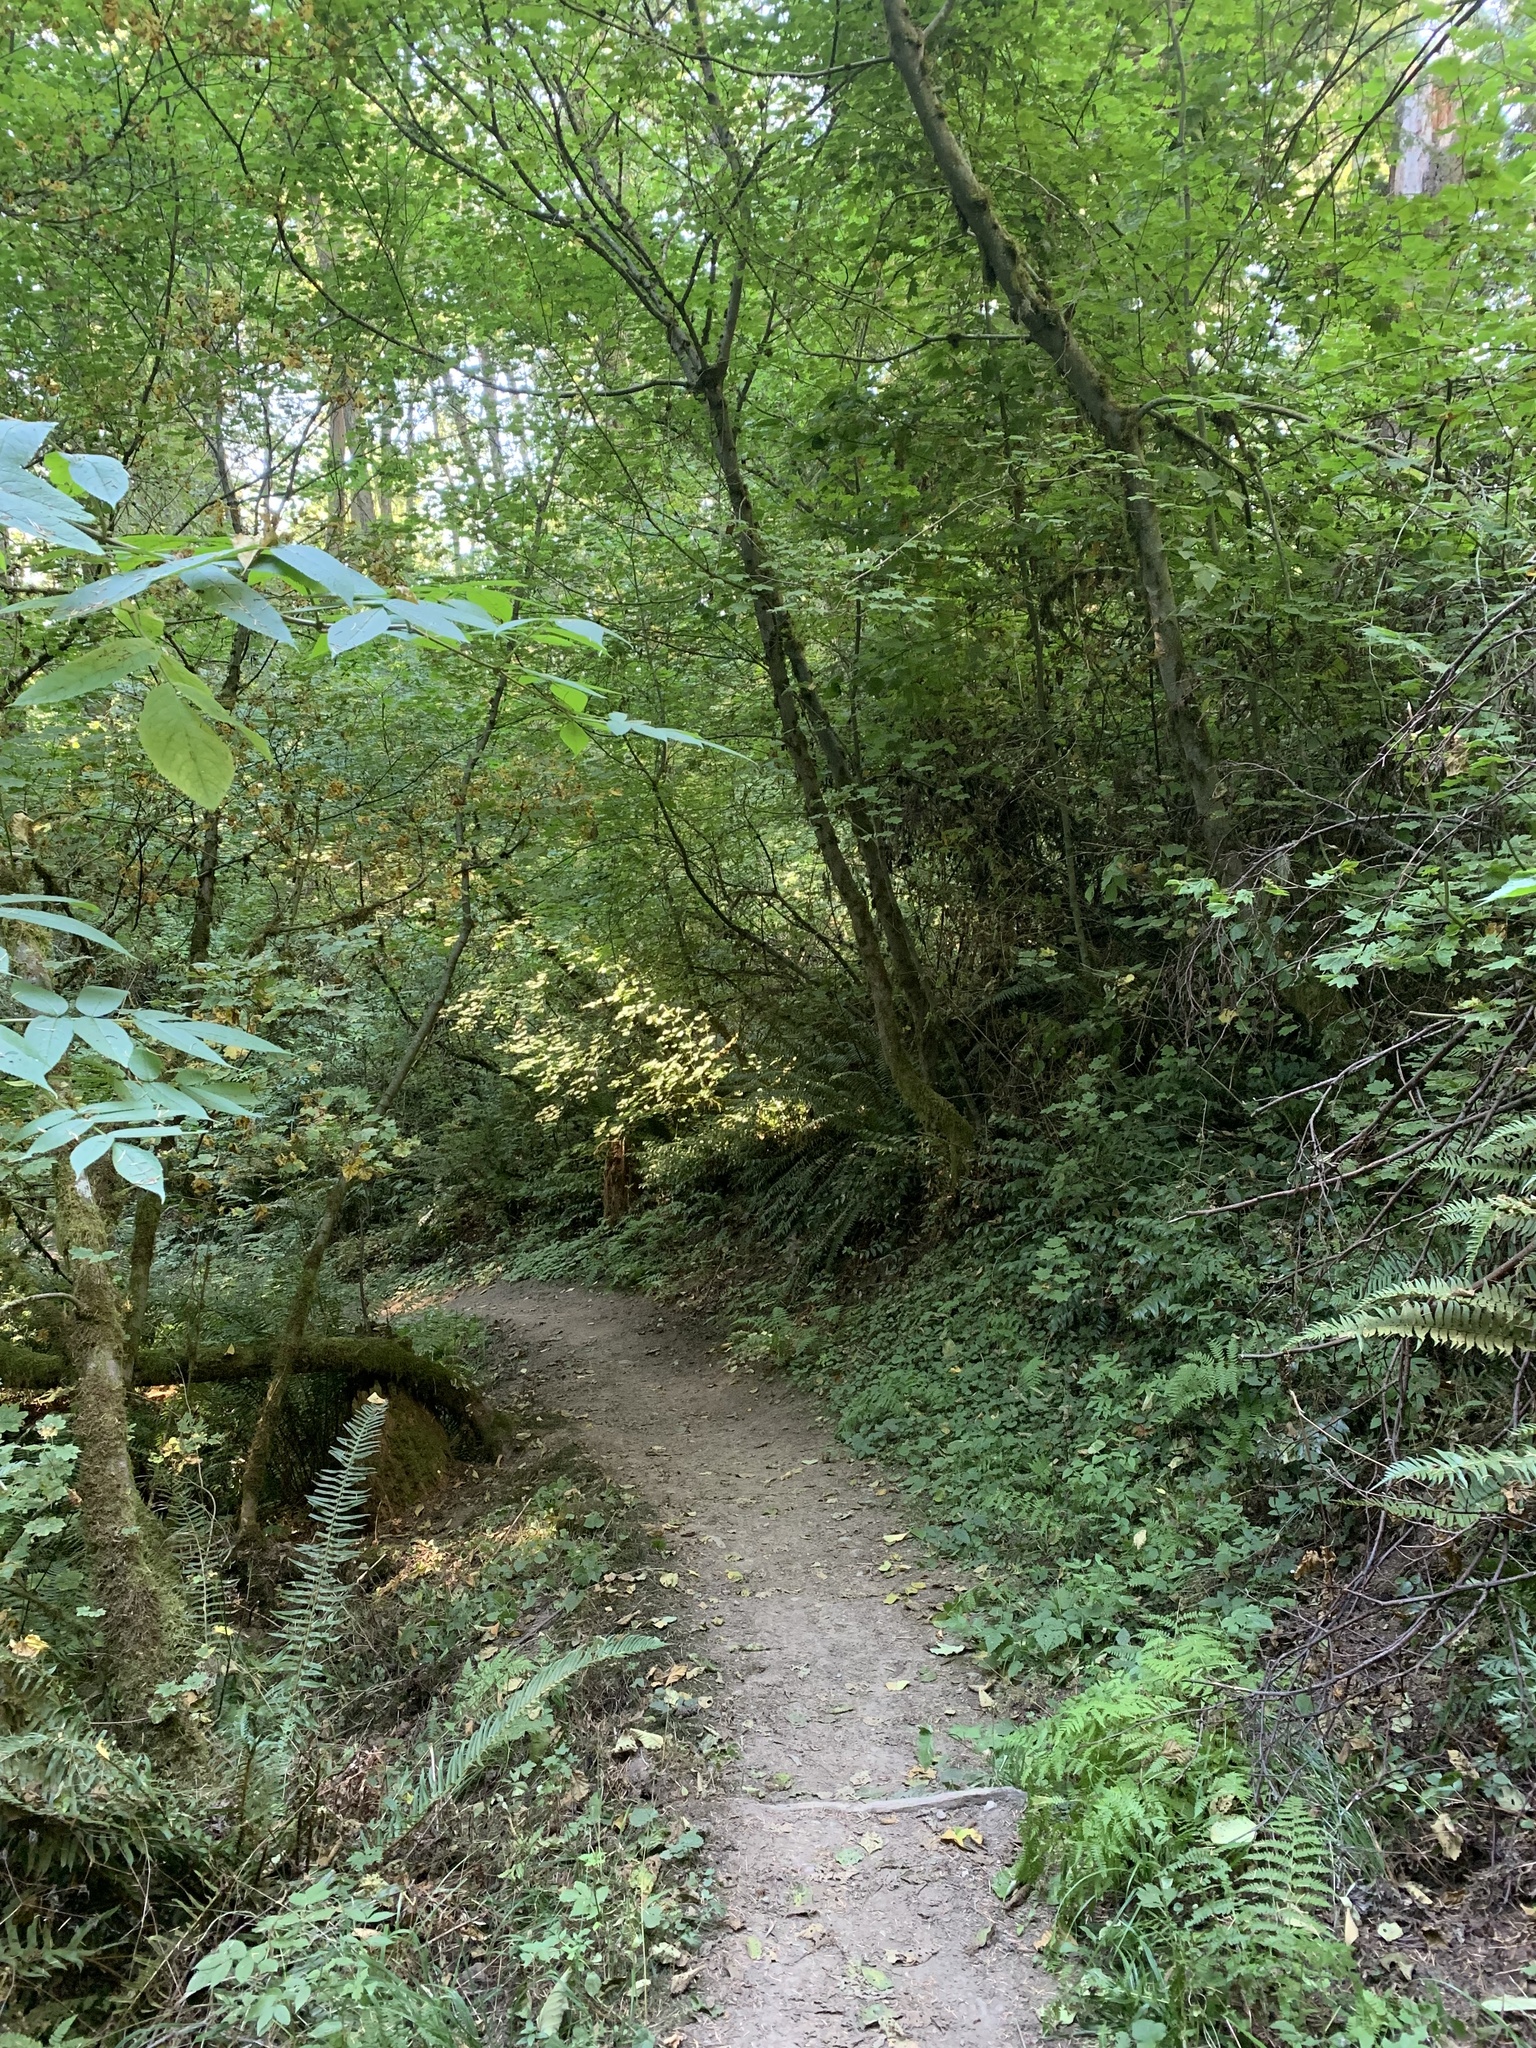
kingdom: Plantae
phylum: Tracheophyta
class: Magnoliopsida
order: Saxifragales
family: Saxifragaceae
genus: Mitellastra
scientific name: Mitellastra caulescens
